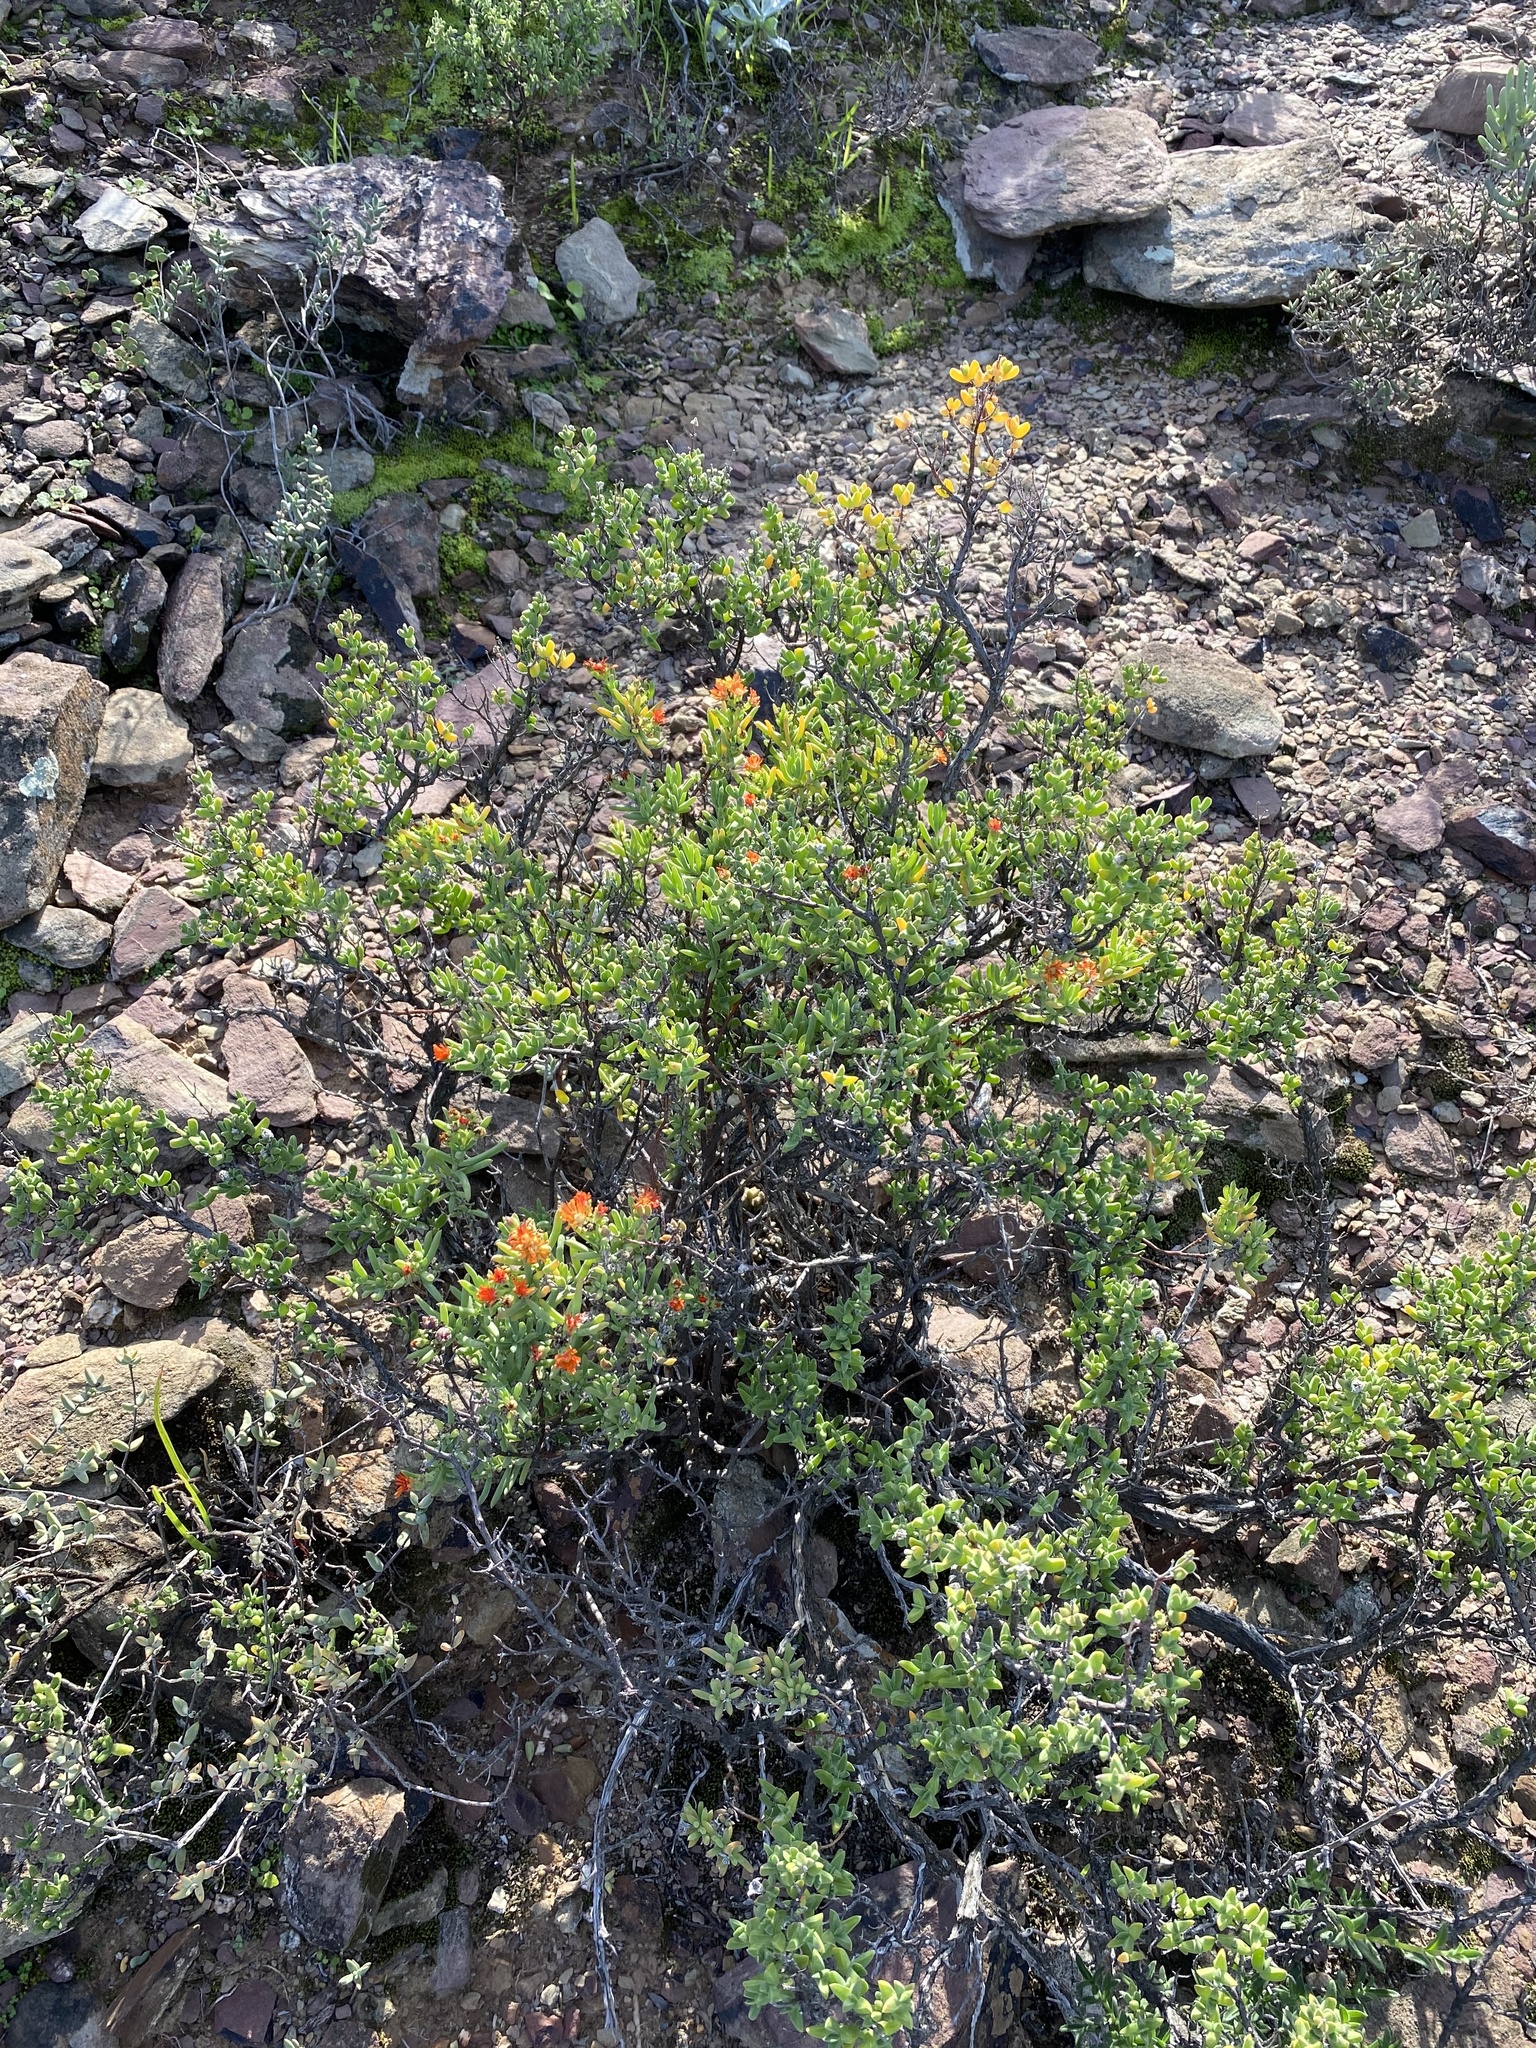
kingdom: Plantae
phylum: Tracheophyta
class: Magnoliopsida
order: Caryophyllales
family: Aizoaceae
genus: Mestoklema
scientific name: Mestoklema tuberosum
